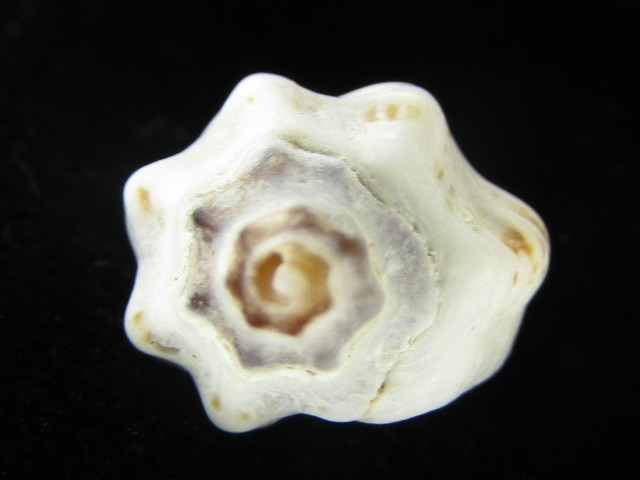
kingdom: Animalia
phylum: Mollusca
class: Gastropoda
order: Neogastropoda
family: Muricidae
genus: Pascula
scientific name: Pascula ochrostoma
